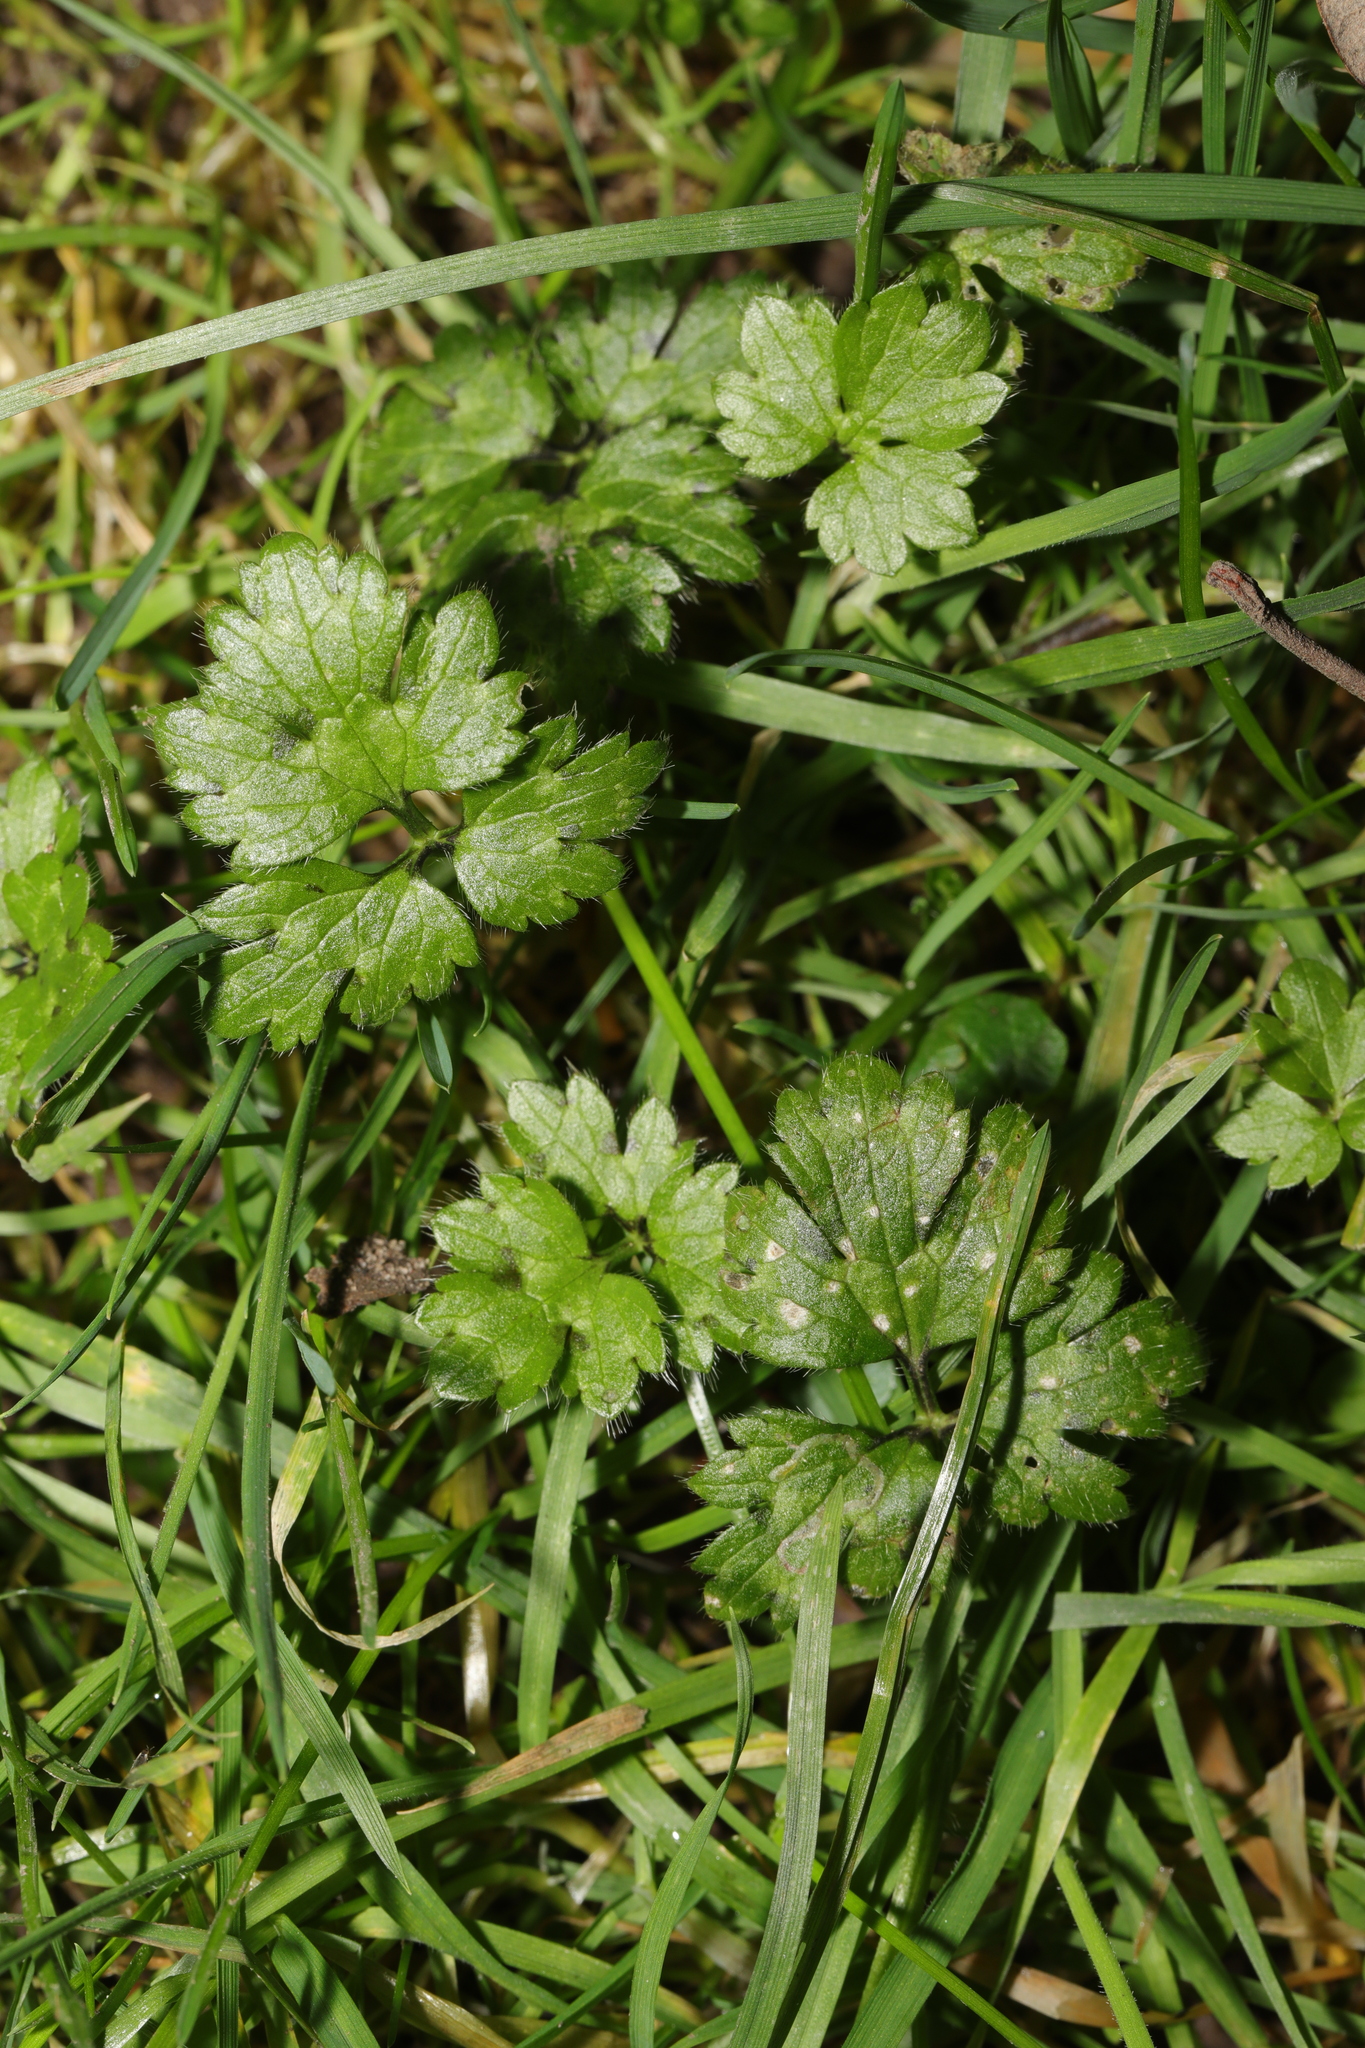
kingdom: Plantae
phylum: Tracheophyta
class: Magnoliopsida
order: Ranunculales
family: Ranunculaceae
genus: Ranunculus
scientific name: Ranunculus repens
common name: Creeping buttercup
